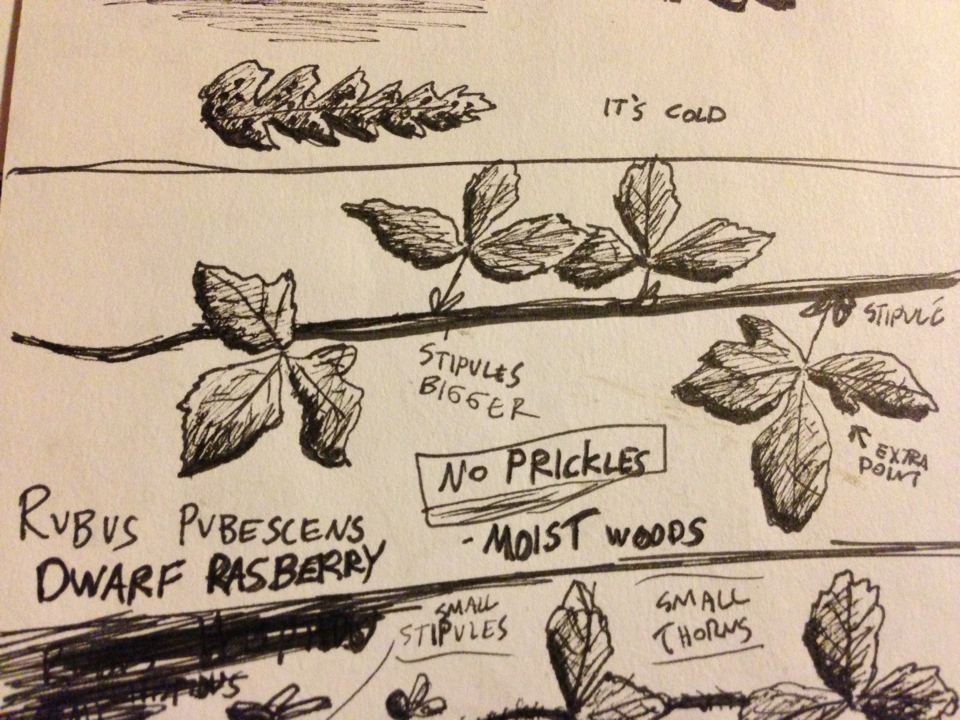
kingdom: Plantae
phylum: Tracheophyta
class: Magnoliopsida
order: Rosales
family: Rosaceae
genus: Rubus
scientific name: Rubus pubescens
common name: Dwarf raspberry
